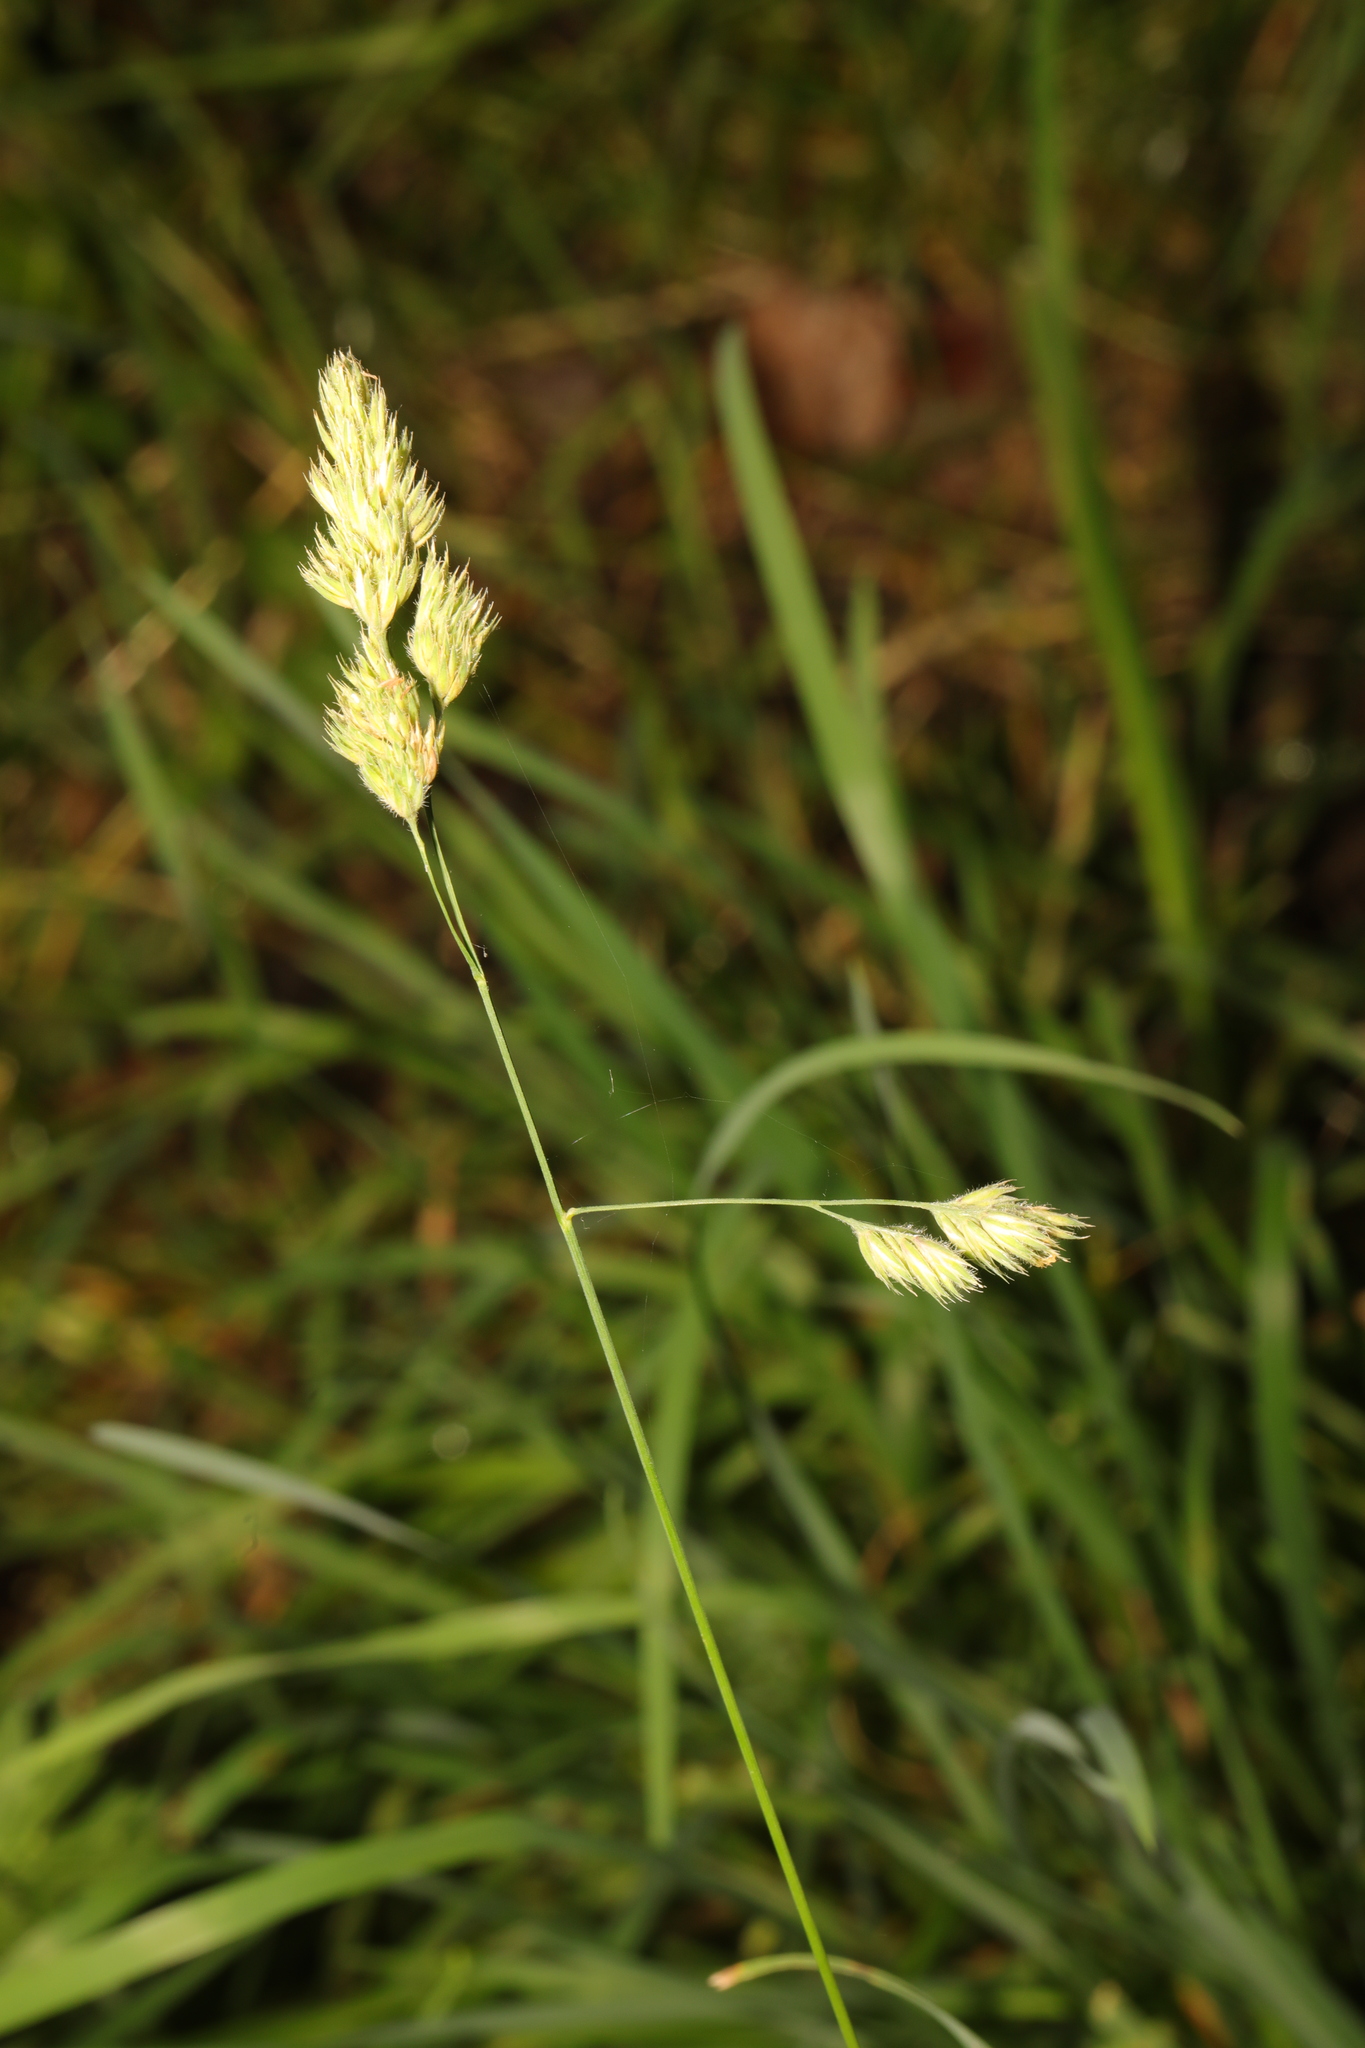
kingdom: Plantae
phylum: Tracheophyta
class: Liliopsida
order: Poales
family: Poaceae
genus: Dactylis
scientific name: Dactylis glomerata
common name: Orchardgrass
